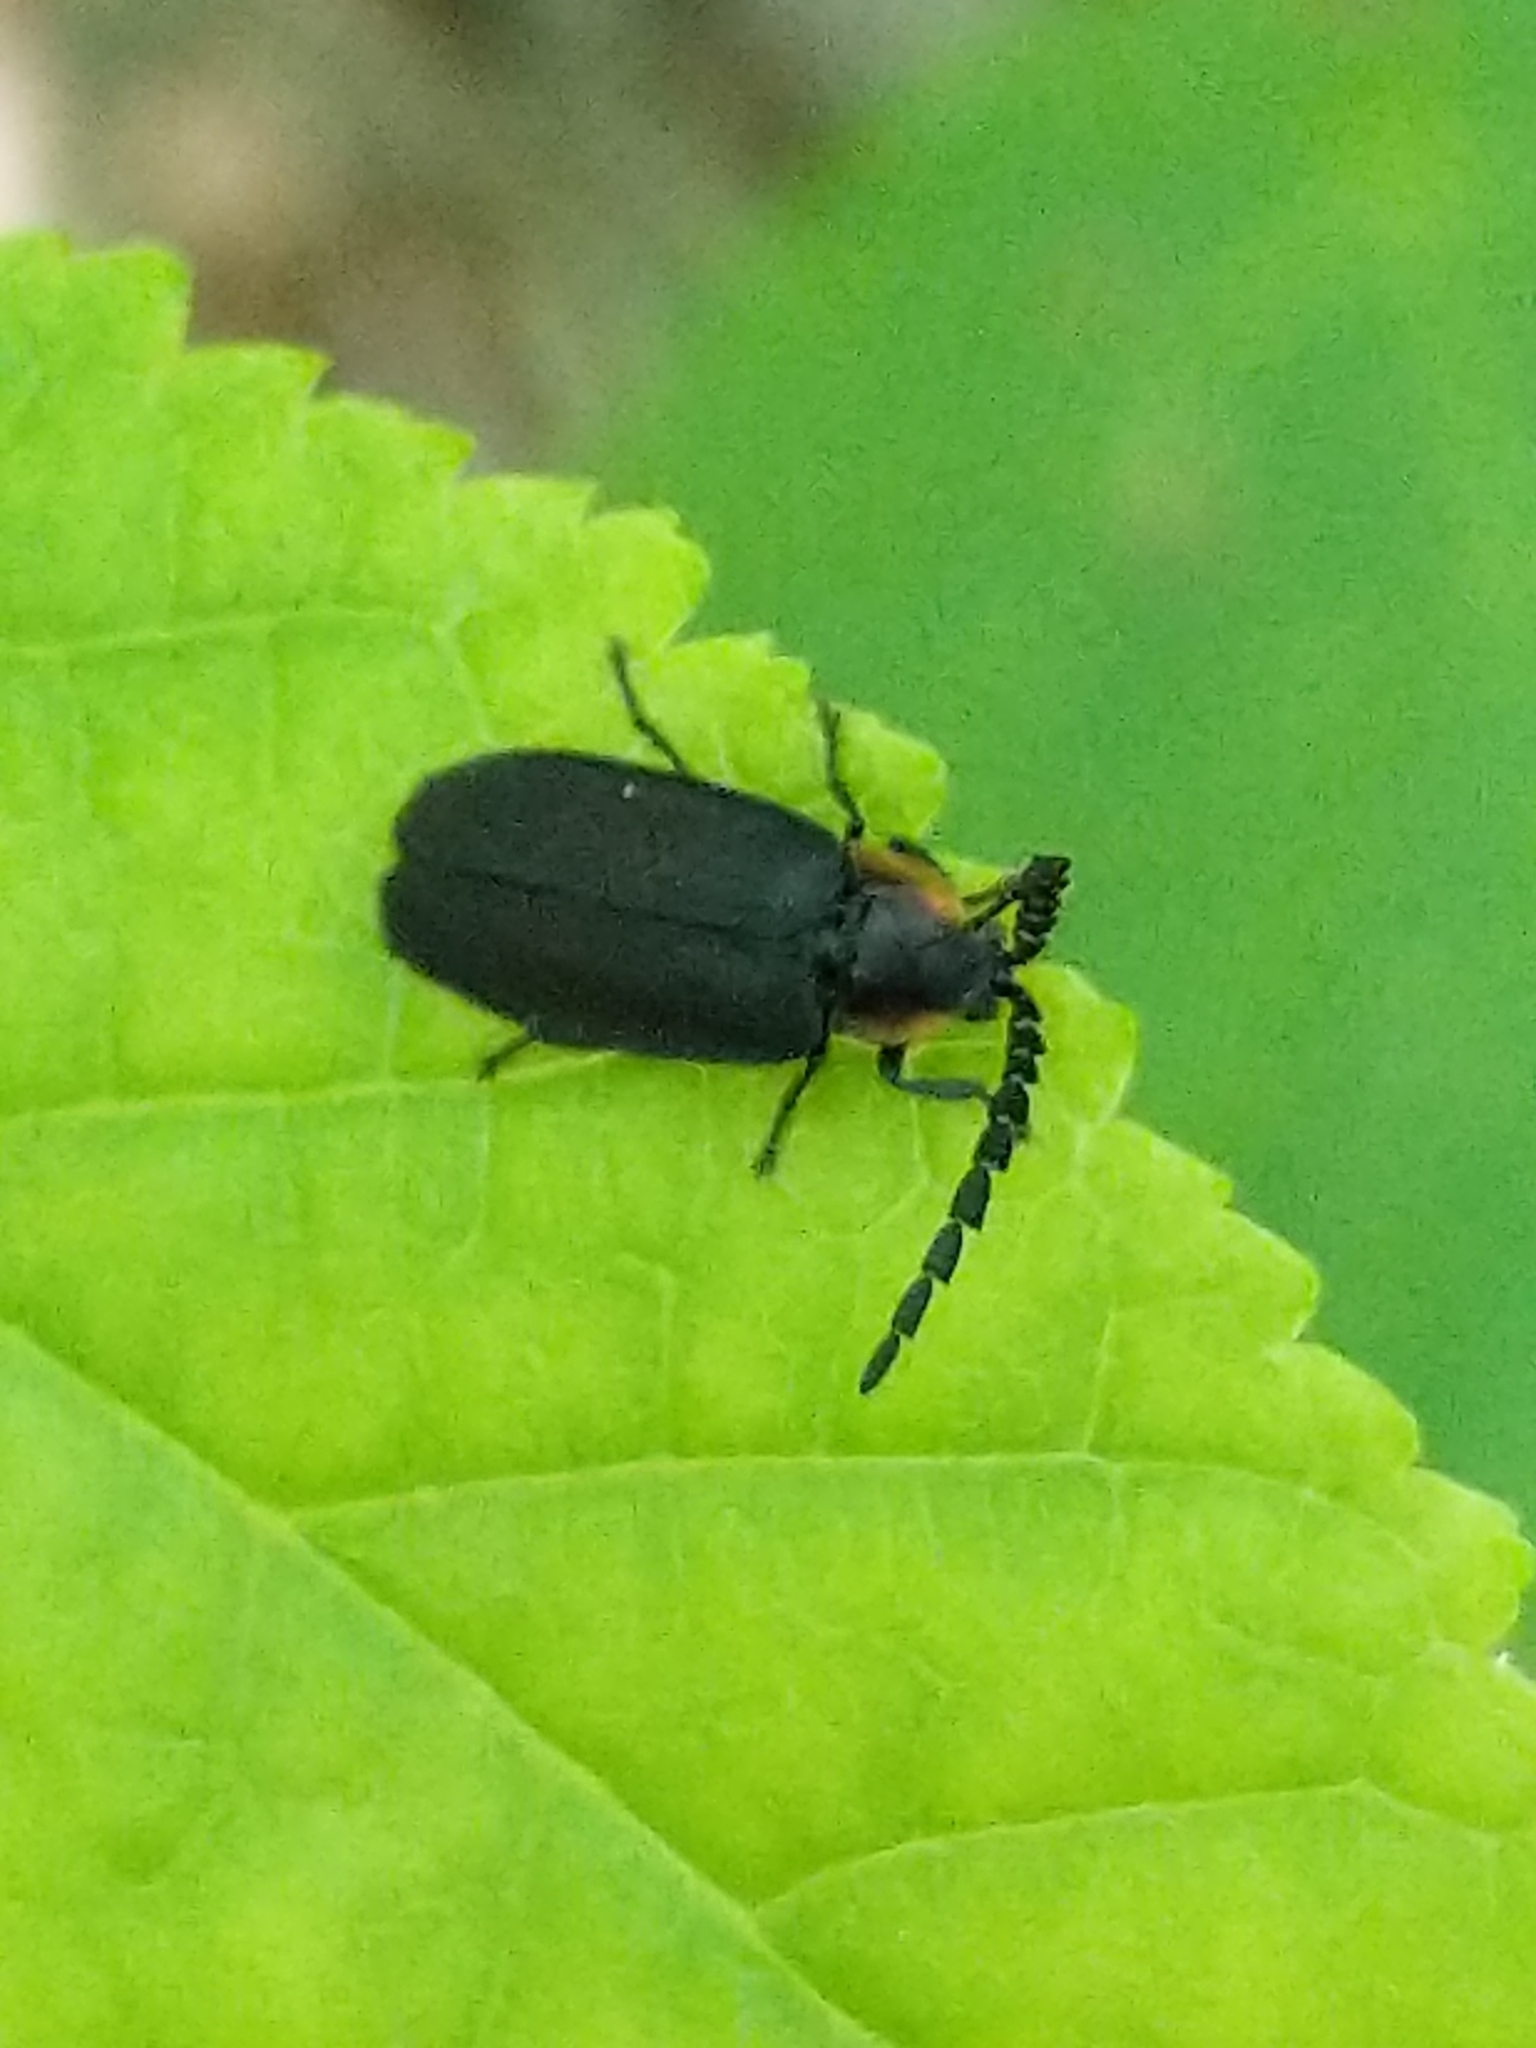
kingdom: Animalia
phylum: Arthropoda
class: Insecta
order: Coleoptera
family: Lampyridae
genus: Lucidota
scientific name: Lucidota atra
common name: Black firefly
